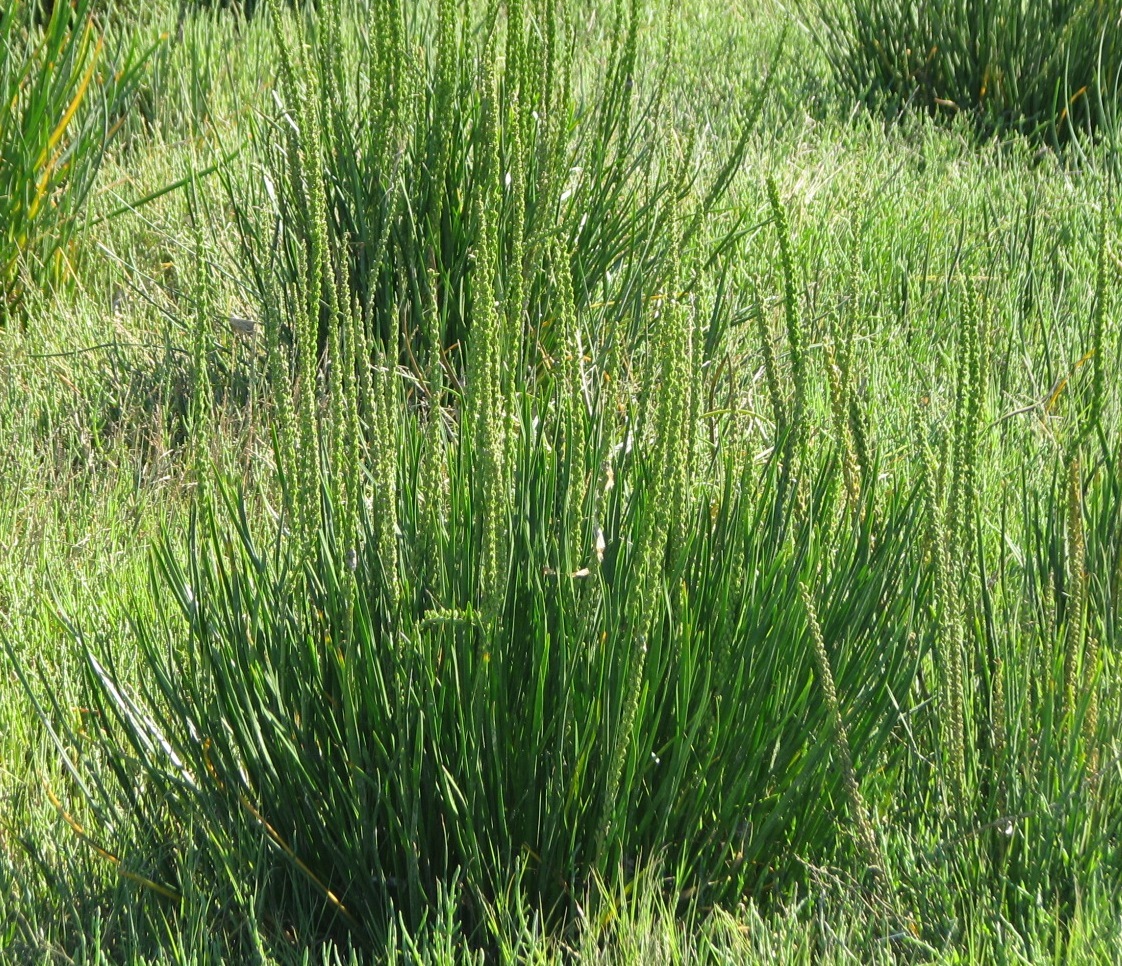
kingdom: Plantae
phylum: Tracheophyta
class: Liliopsida
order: Alismatales
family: Juncaginaceae
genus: Triglochin
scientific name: Triglochin maritima
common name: Sea arrowgrass
